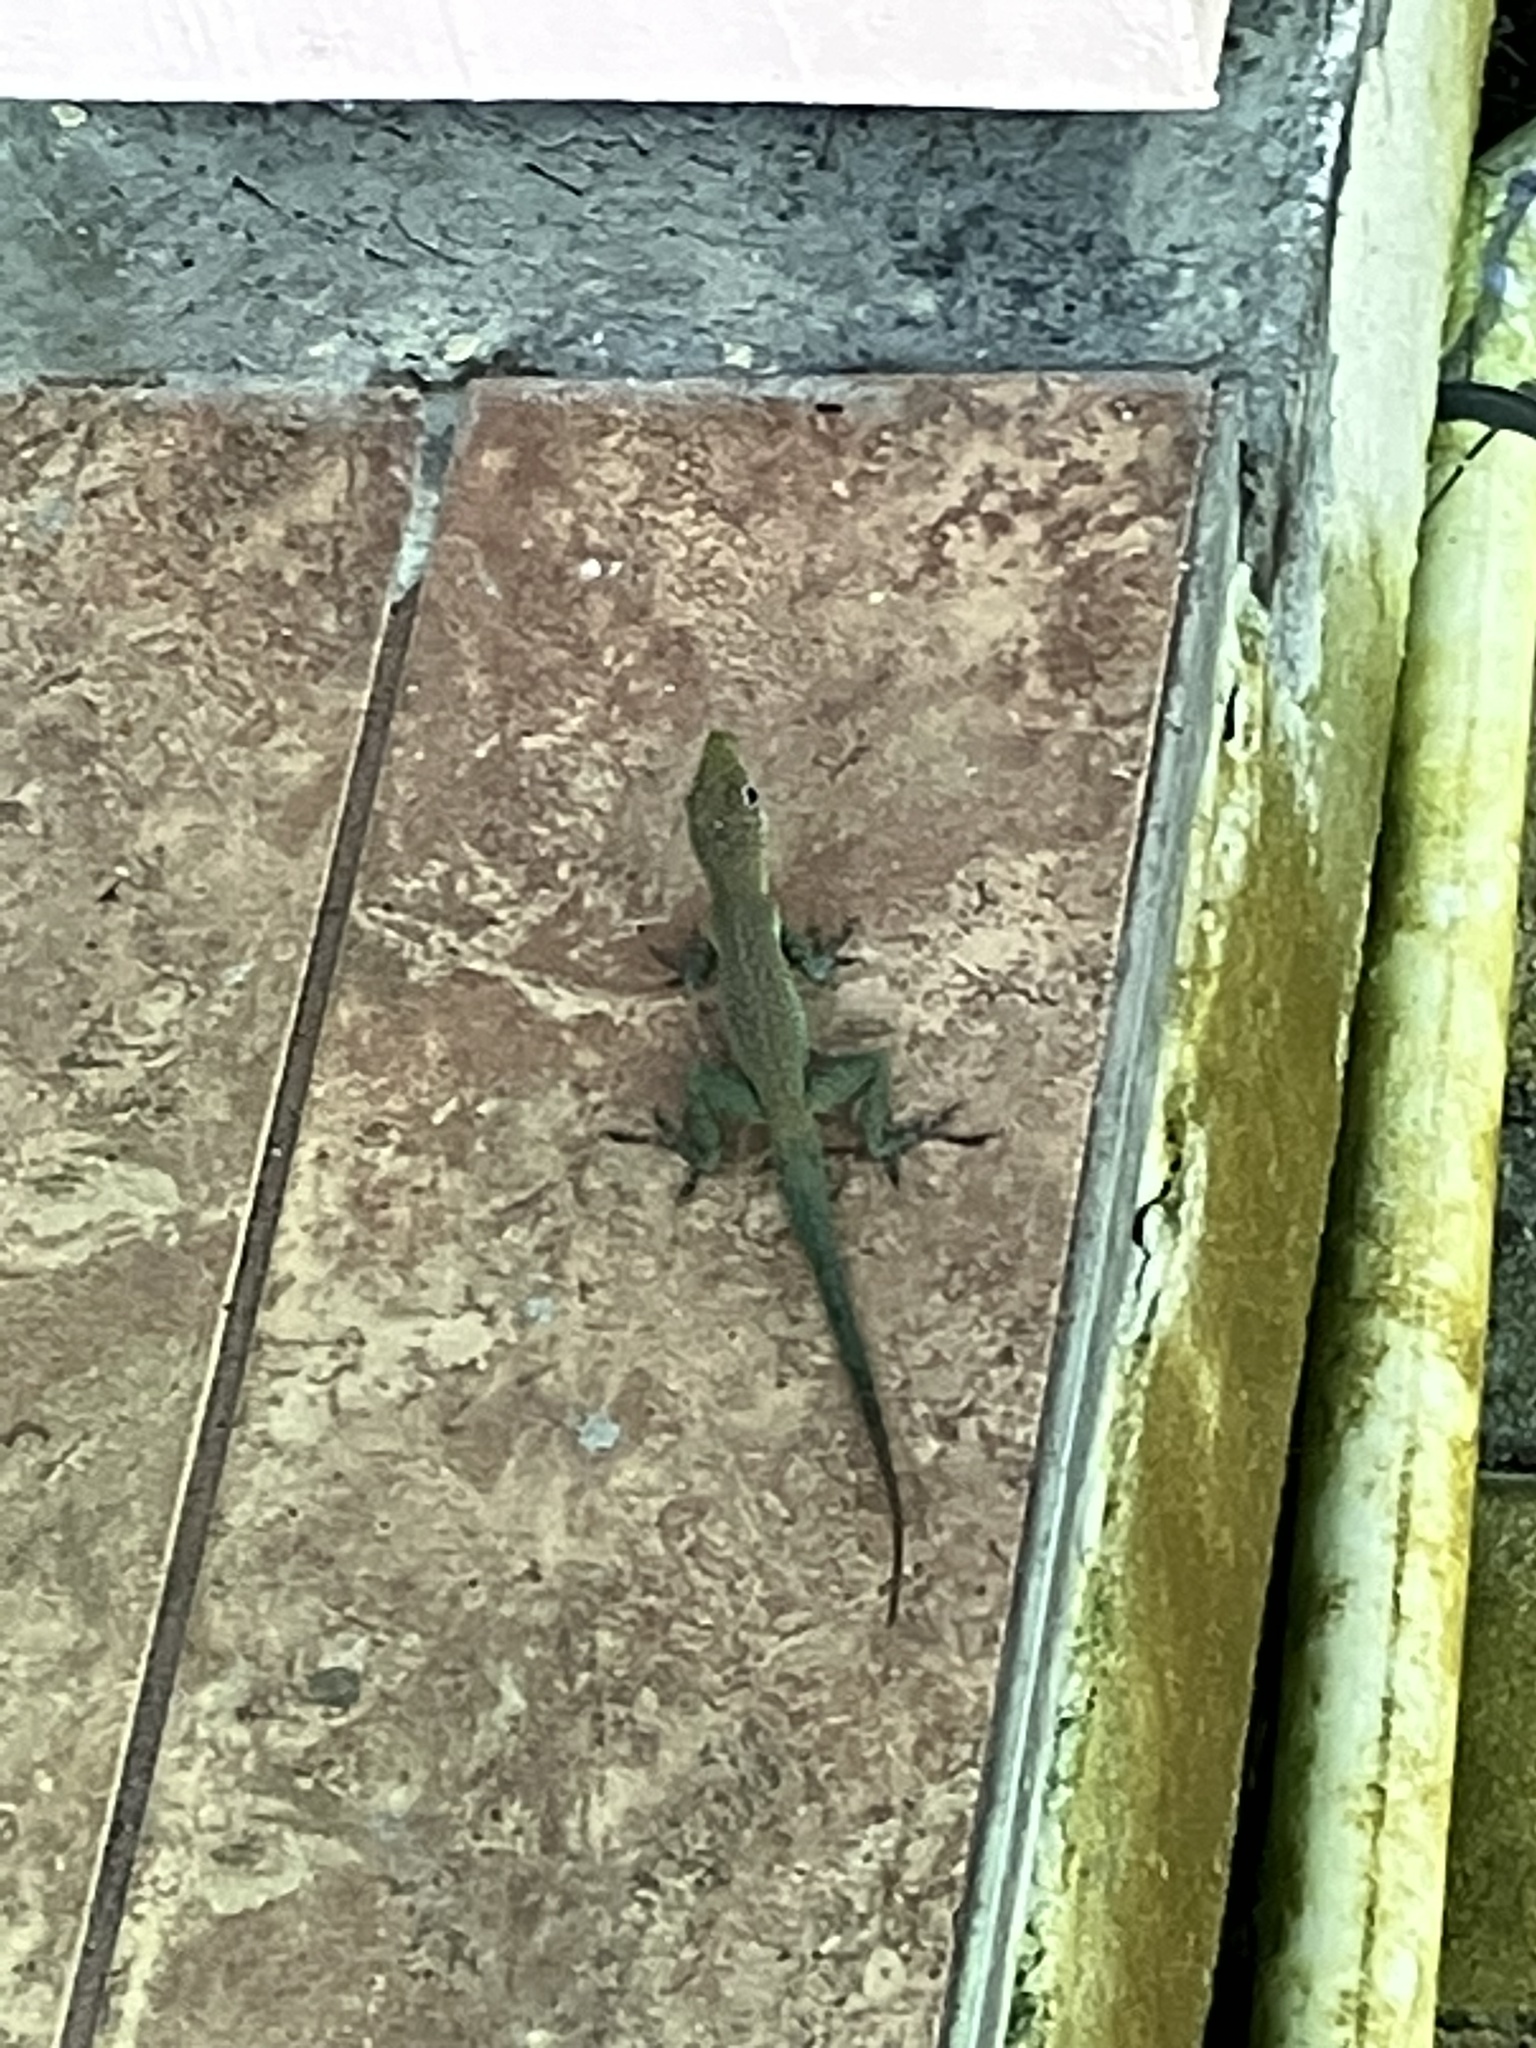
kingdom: Animalia
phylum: Chordata
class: Squamata
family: Dactyloidae
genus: Anolis
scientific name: Anolis conspersus
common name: Grand cayman anole
